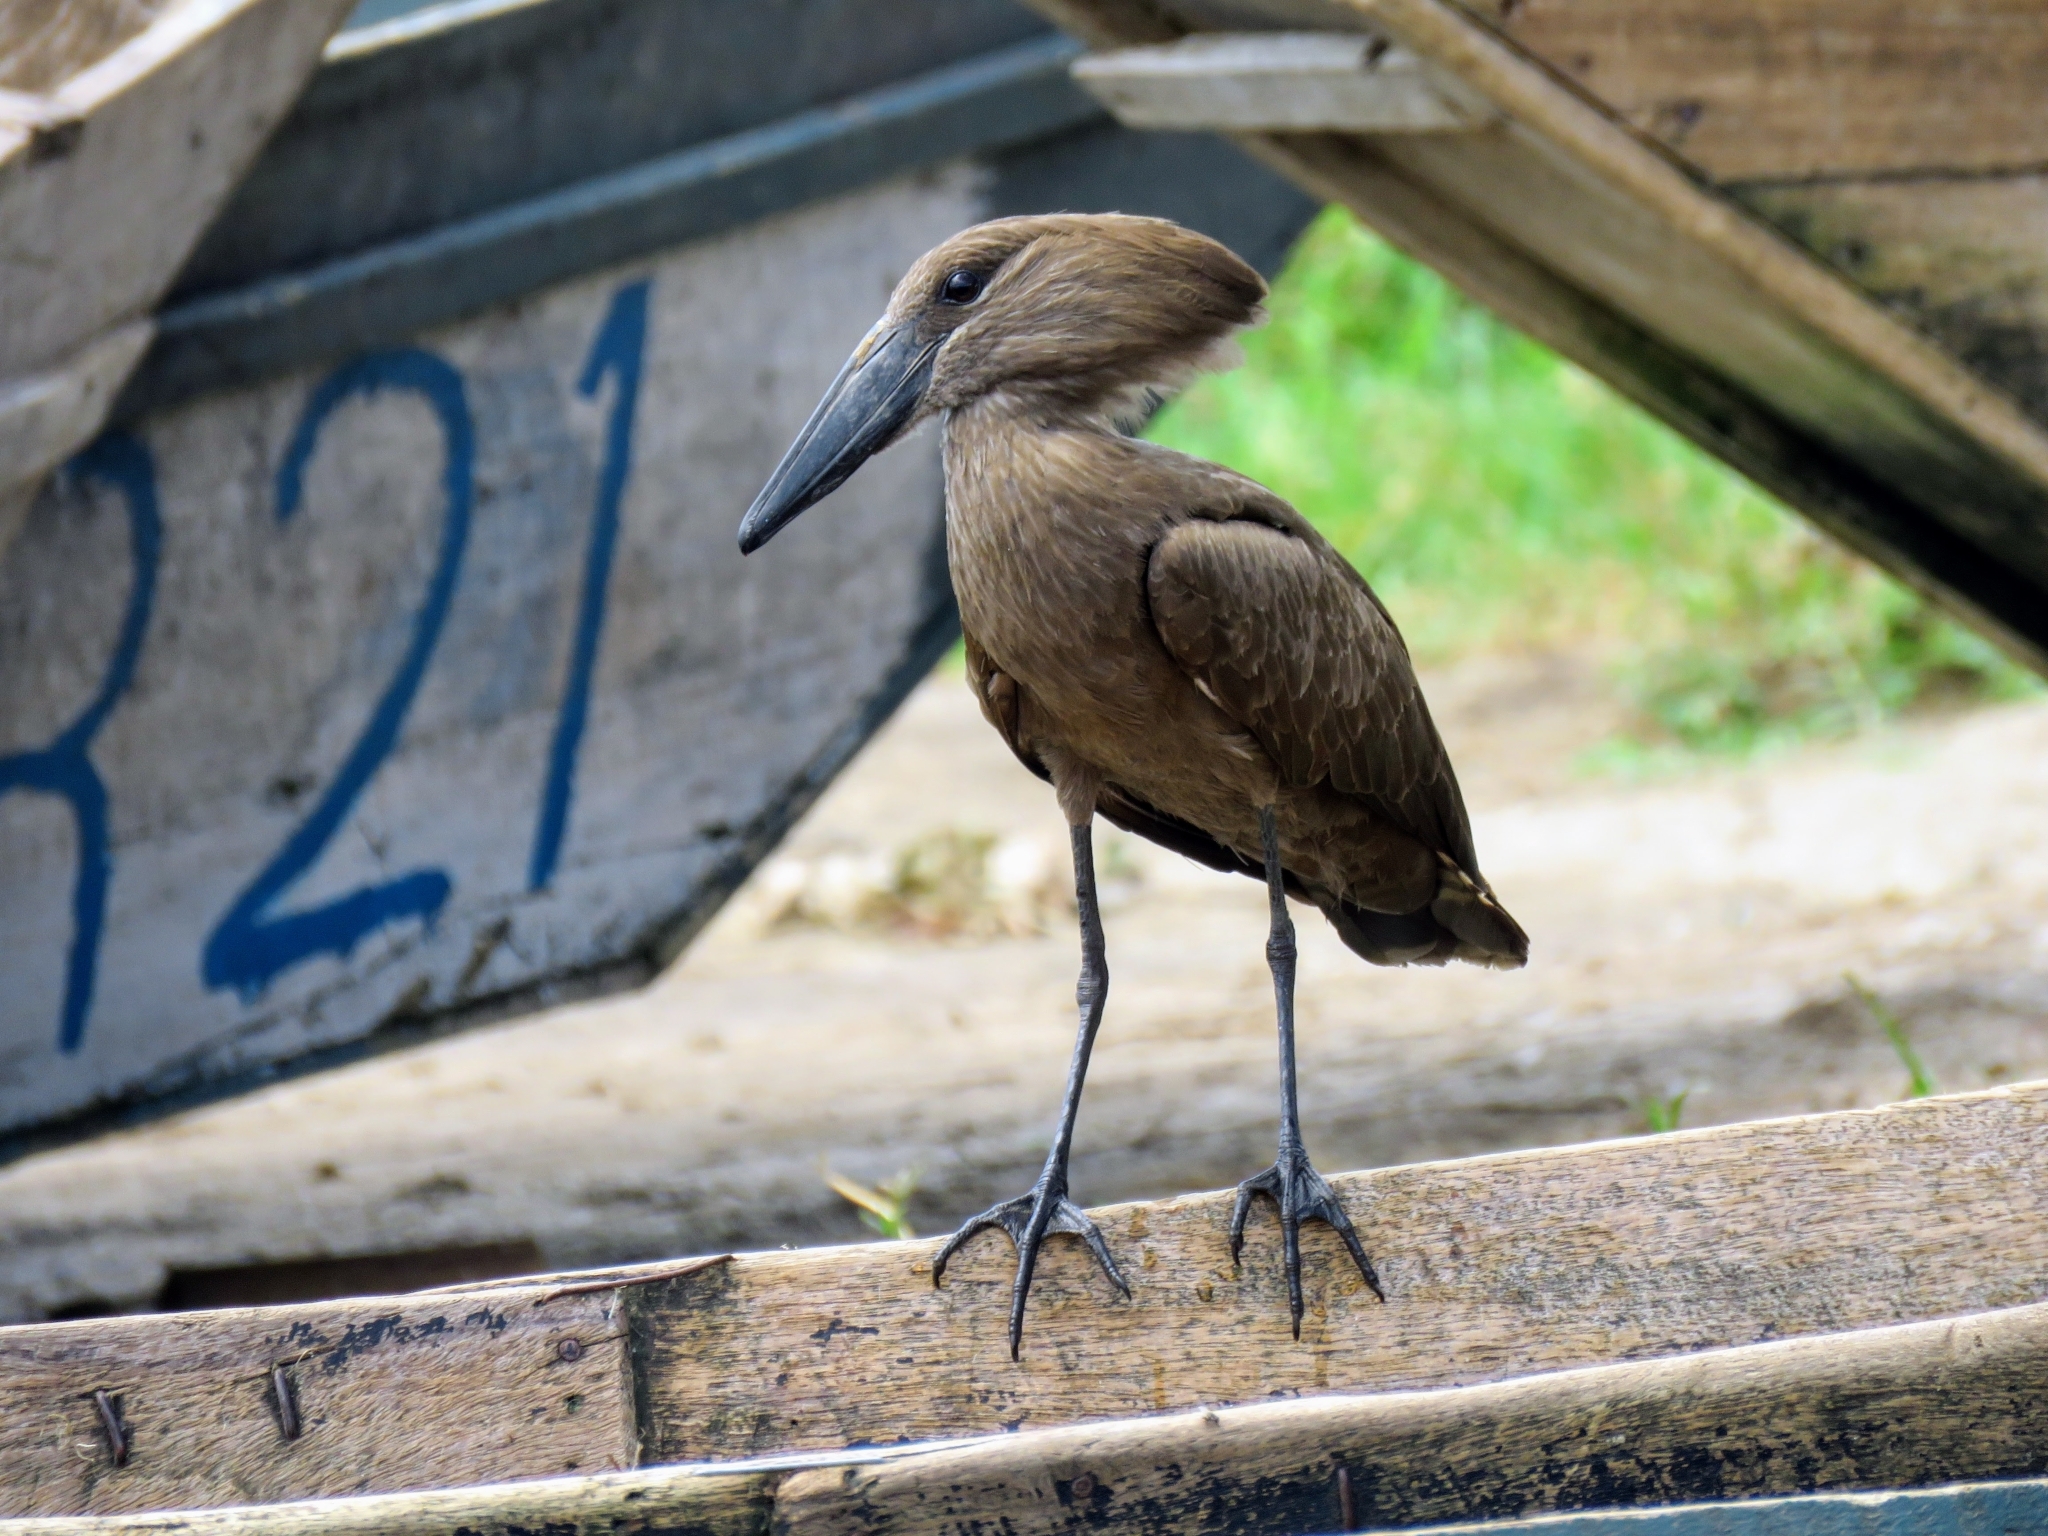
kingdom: Animalia
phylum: Chordata
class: Aves
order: Pelecaniformes
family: Scopidae
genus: Scopus
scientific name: Scopus umbretta
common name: Hamerkop
